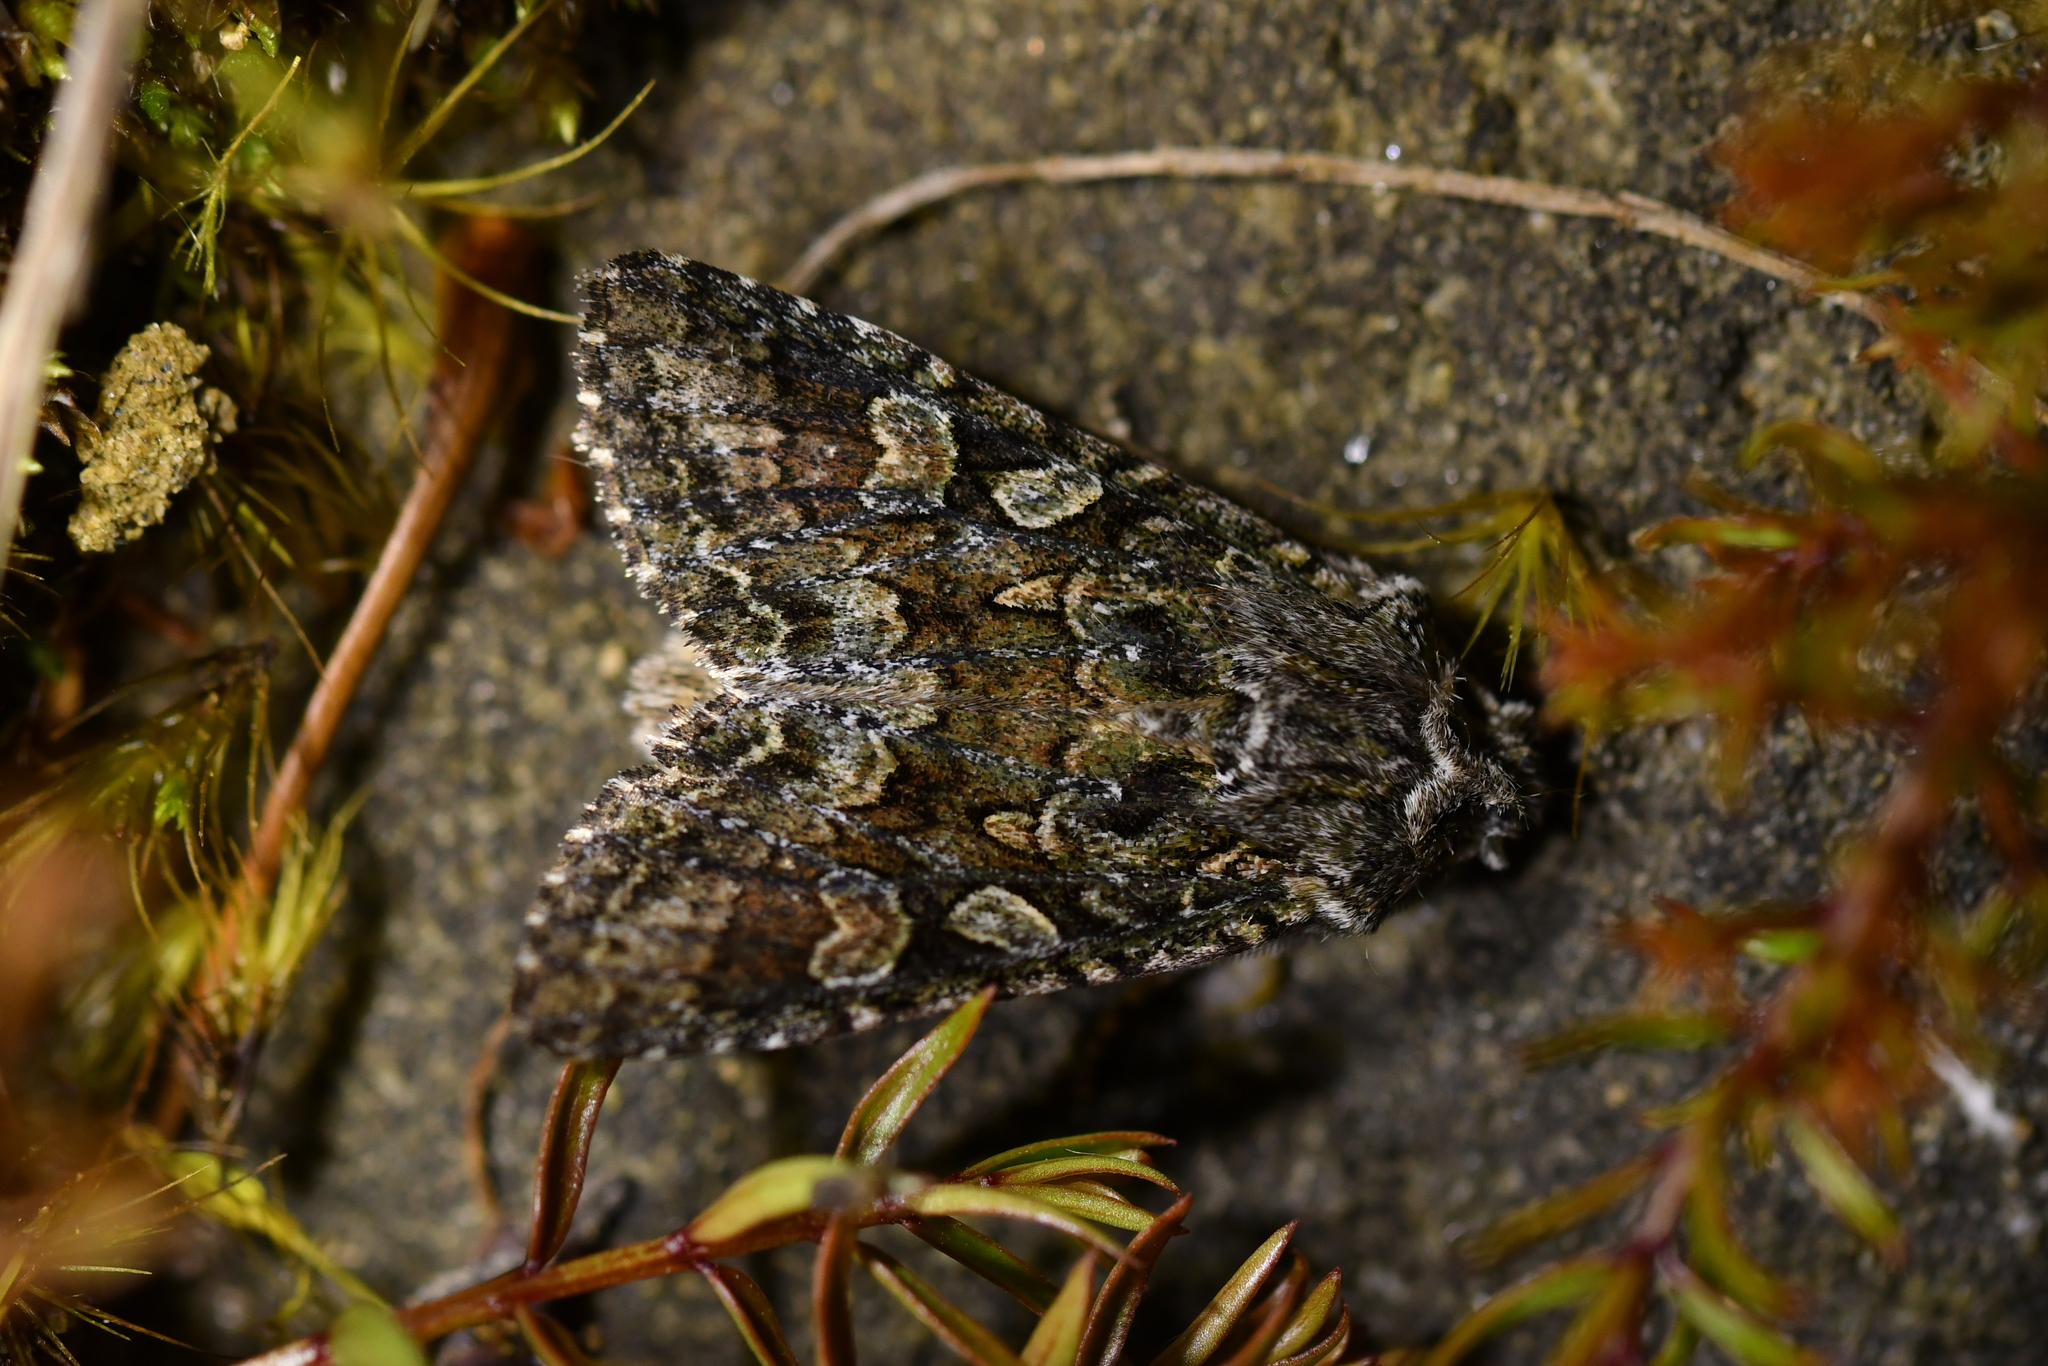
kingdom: Animalia
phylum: Arthropoda
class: Insecta
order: Lepidoptera
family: Noctuidae
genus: Ichneutica
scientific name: Ichneutica
